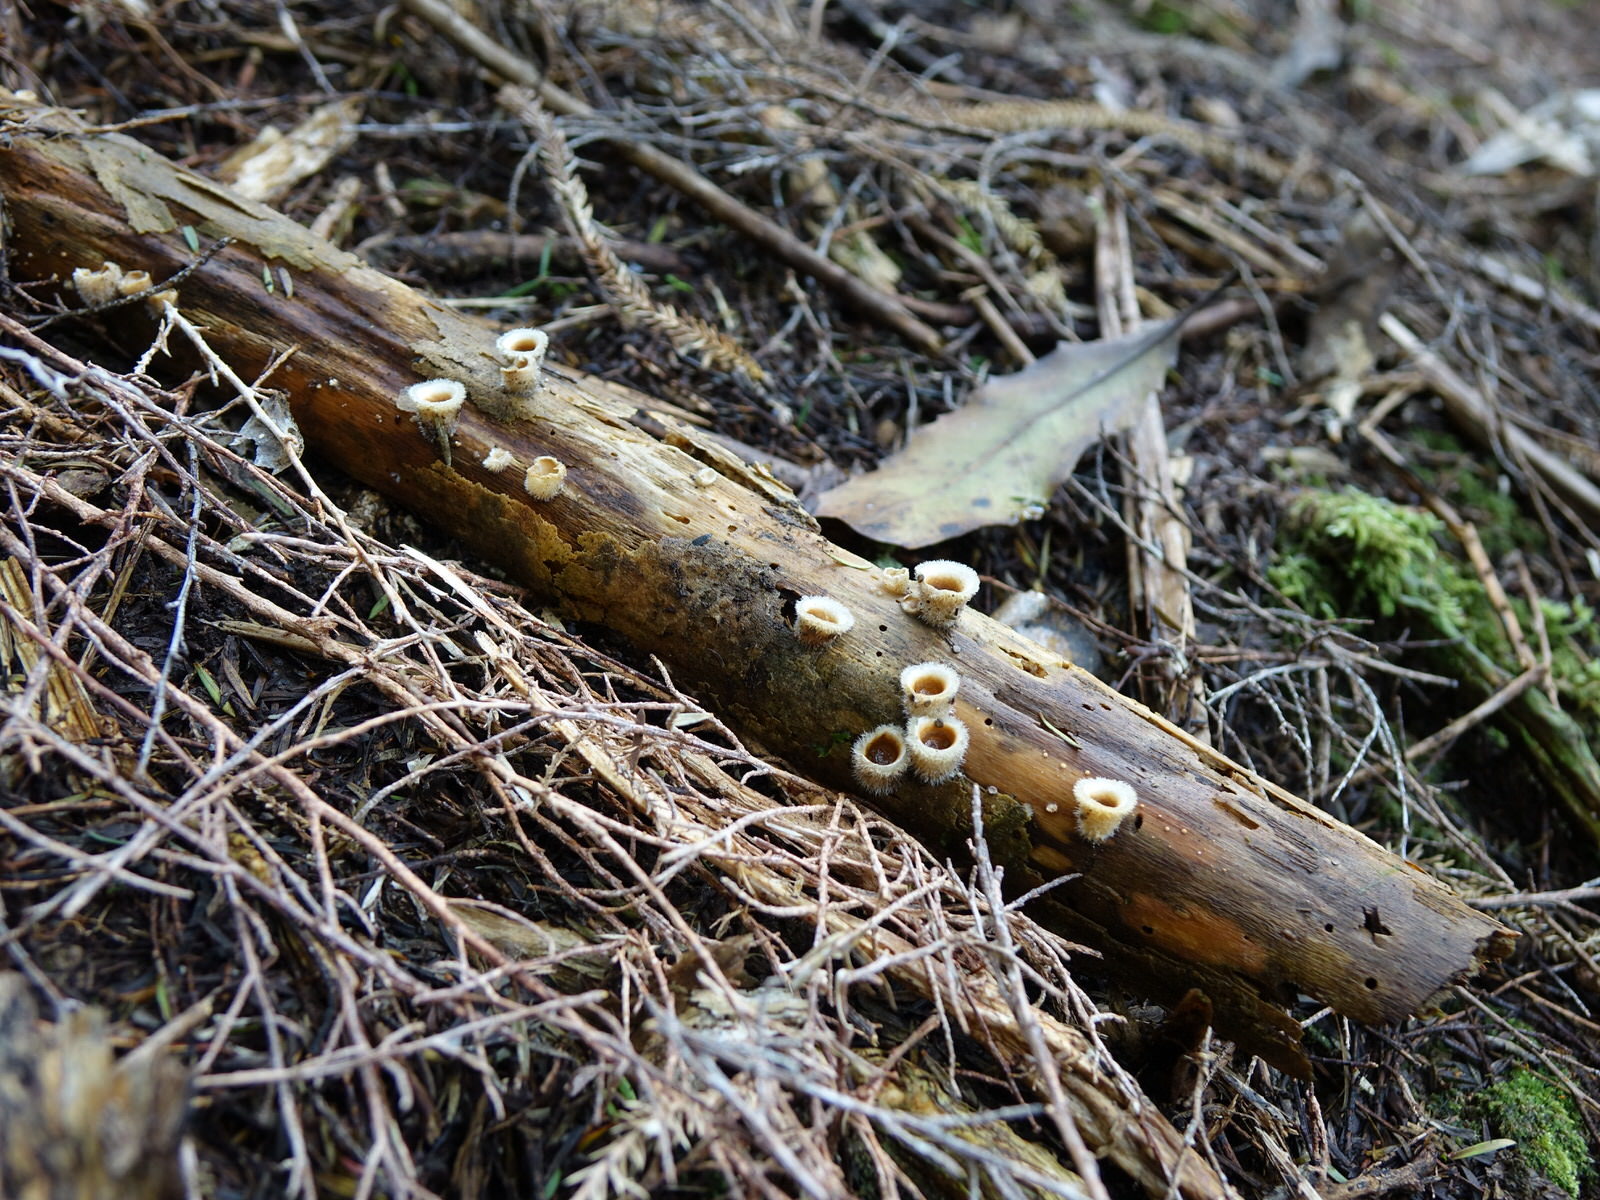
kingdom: Fungi
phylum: Basidiomycota
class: Agaricomycetes
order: Agaricales
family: Agaricaceae
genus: Nidula
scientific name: Nidula niveotomentosa
